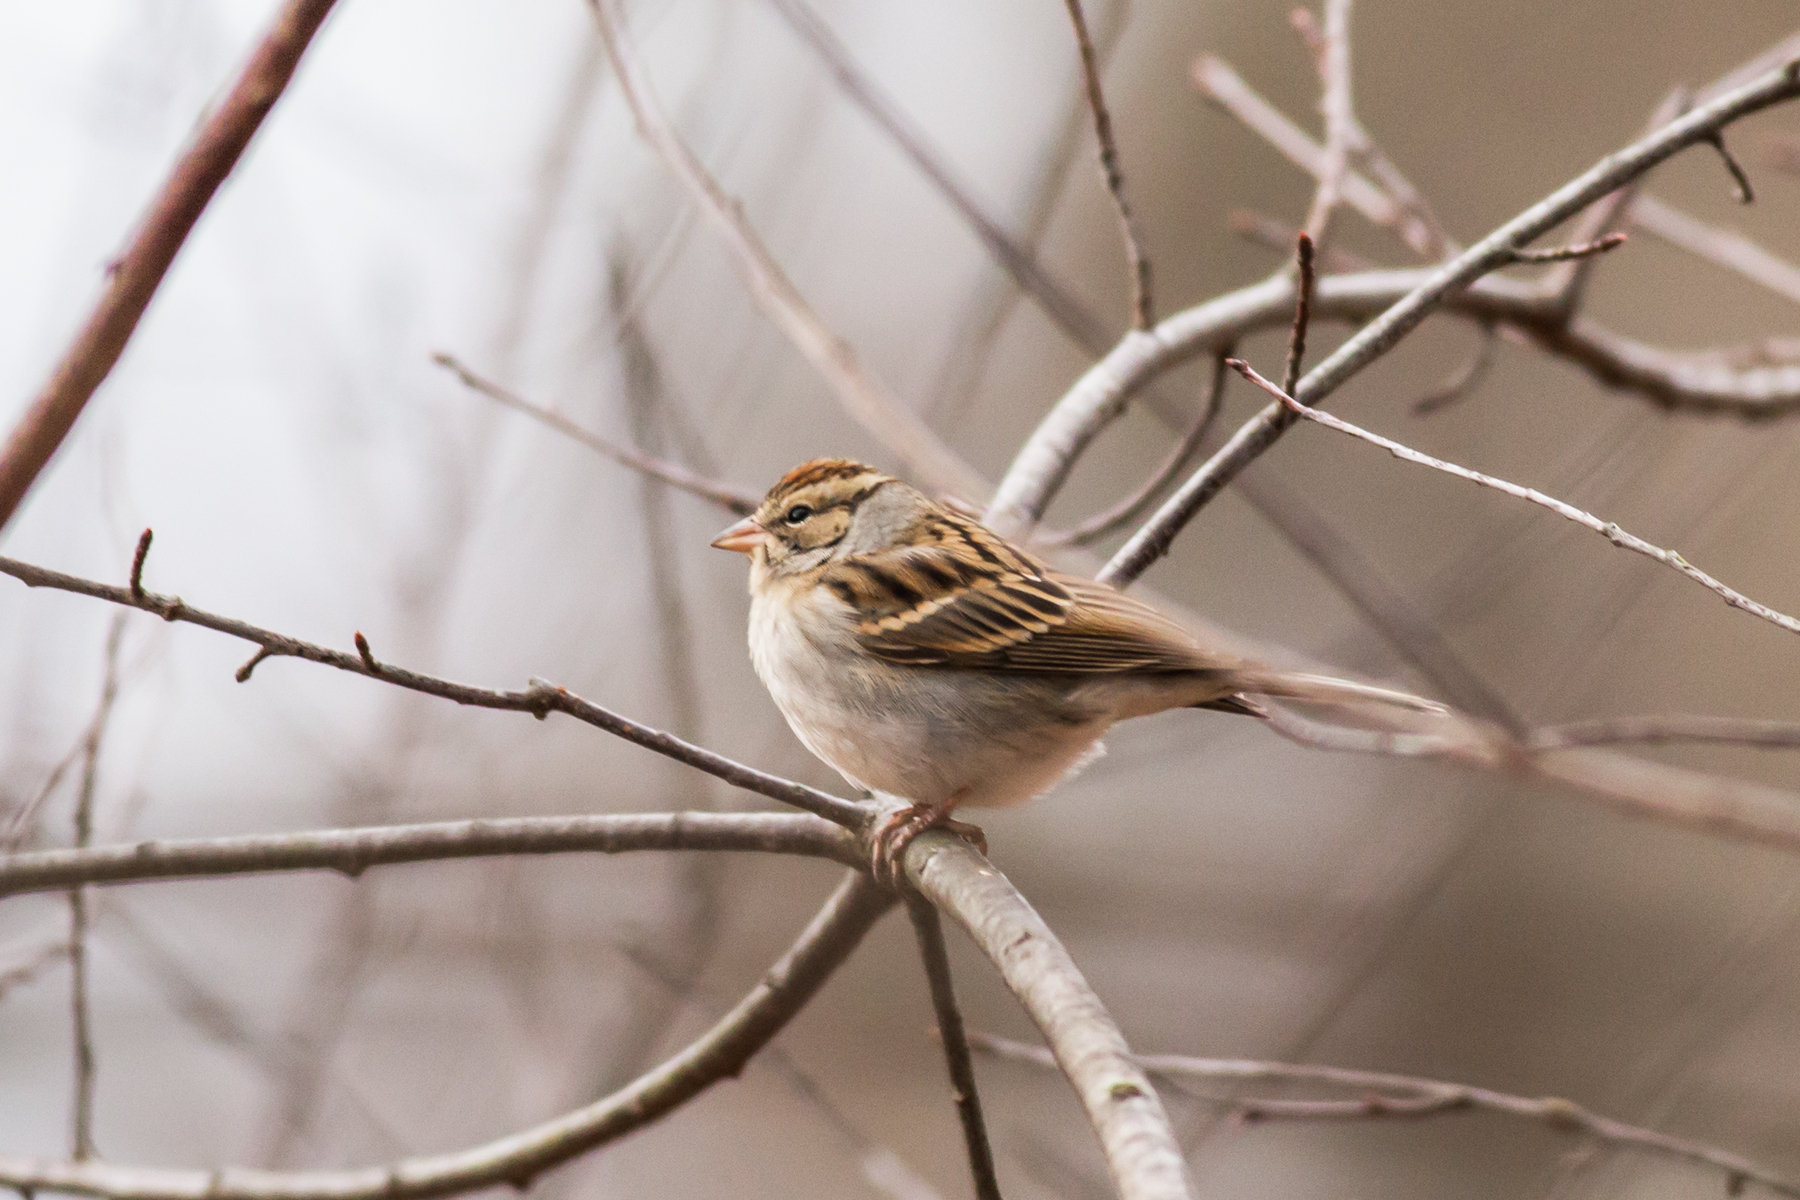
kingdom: Animalia
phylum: Chordata
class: Aves
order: Passeriformes
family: Passerellidae
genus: Spizella
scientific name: Spizella passerina
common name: Chipping sparrow
